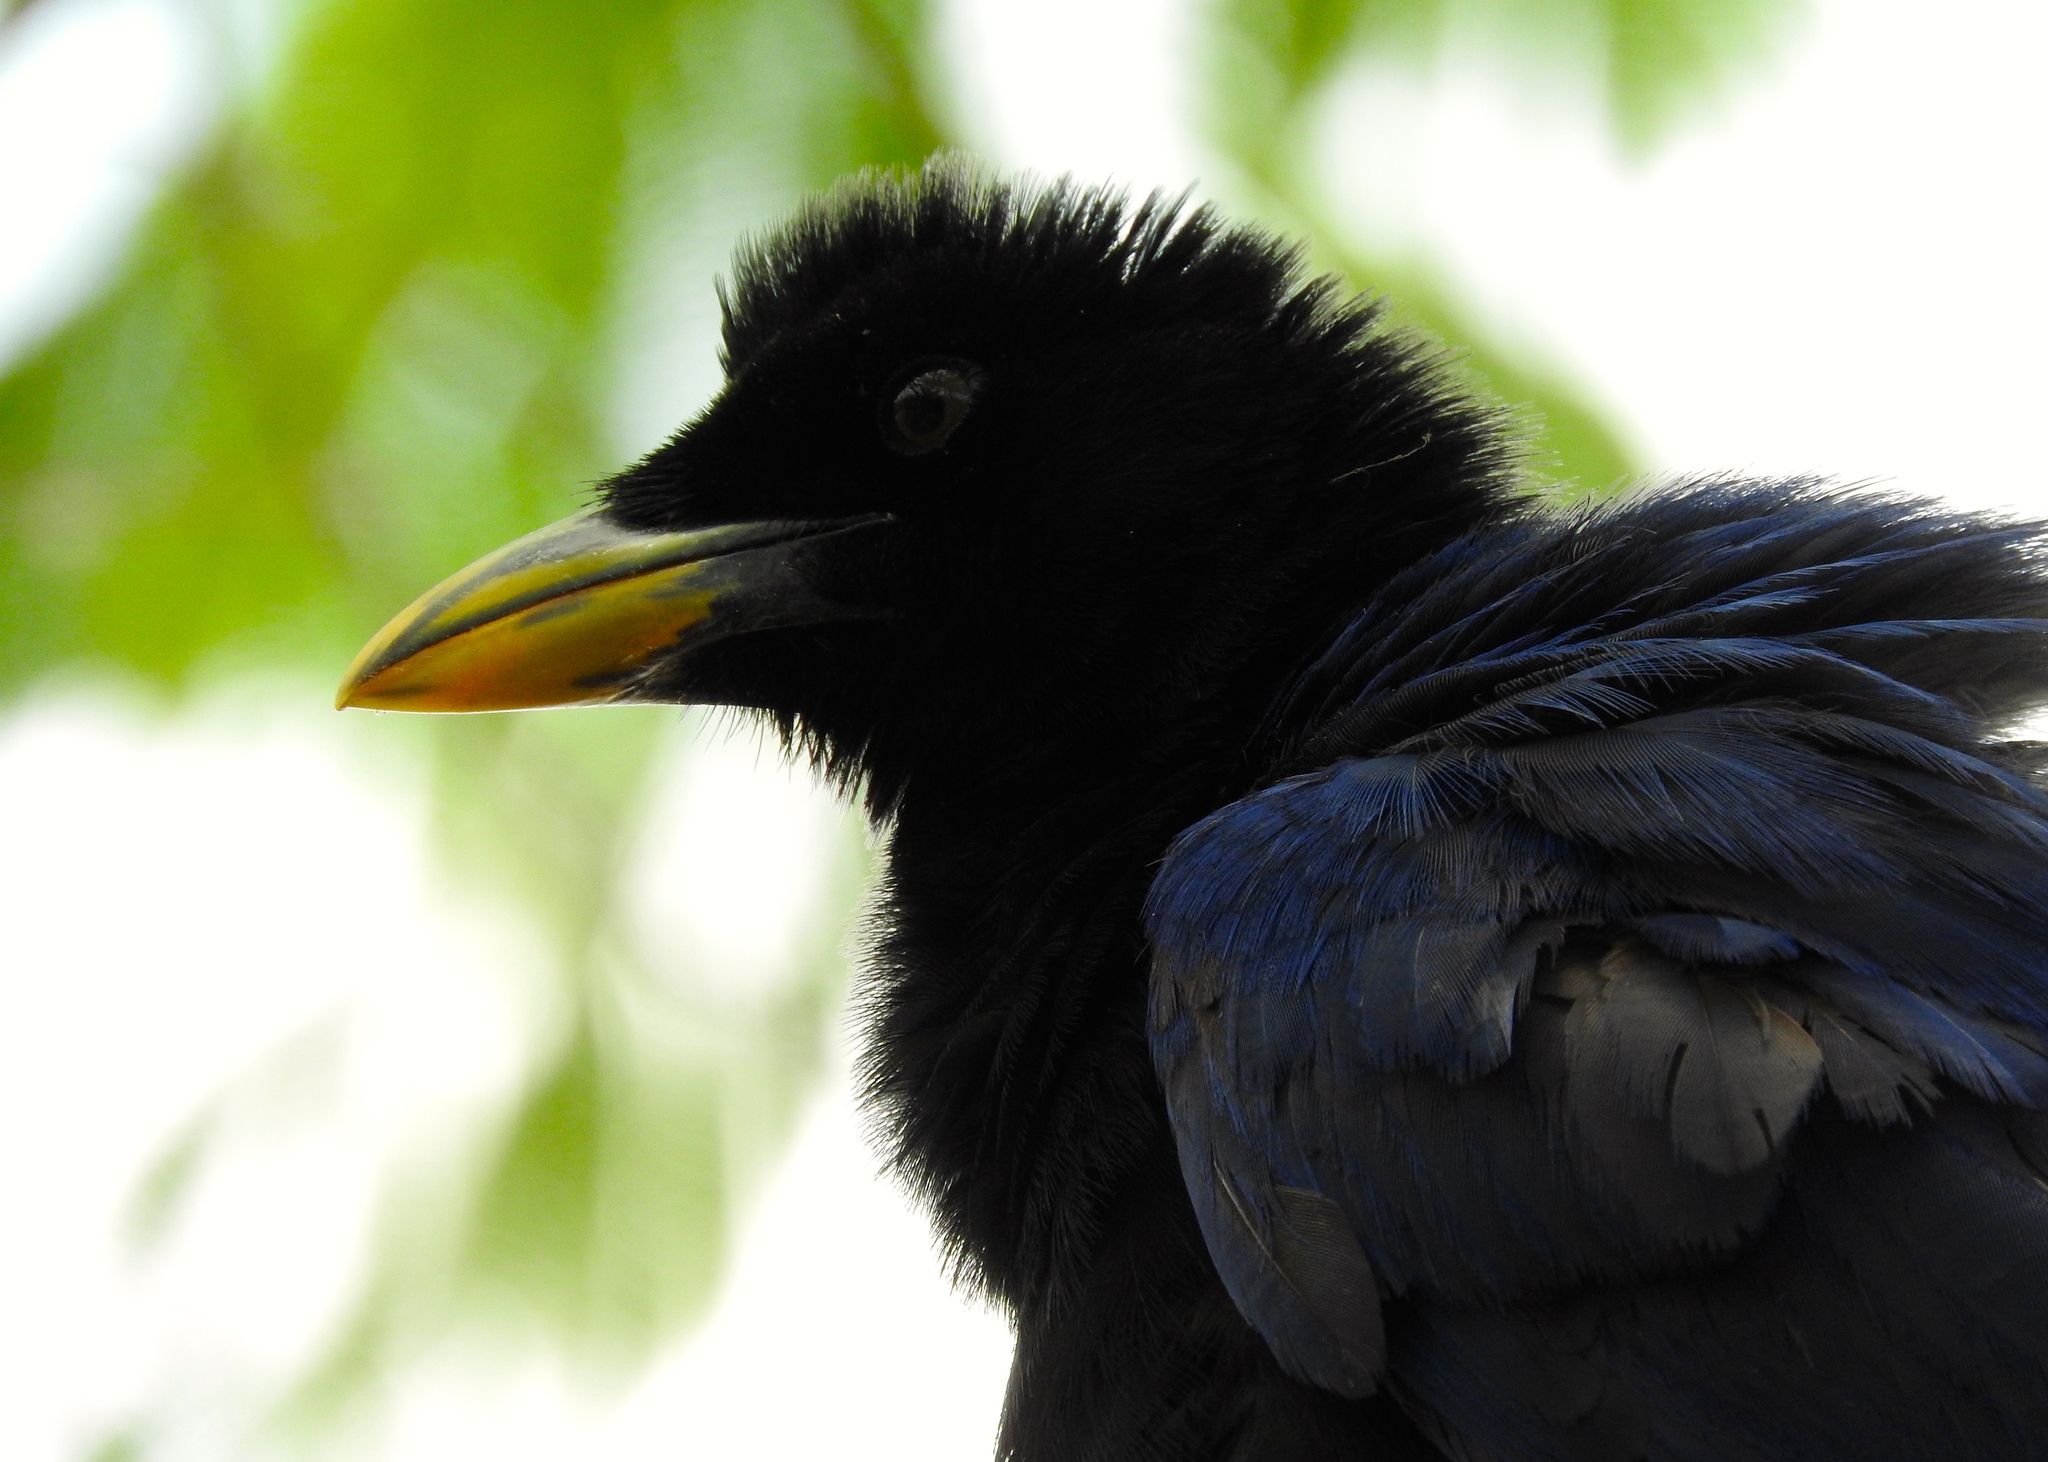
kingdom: Animalia
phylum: Chordata
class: Aves
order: Passeriformes
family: Corvidae
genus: Cyanocorax
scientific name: Cyanocorax beecheii
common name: Purplish-backed jay
